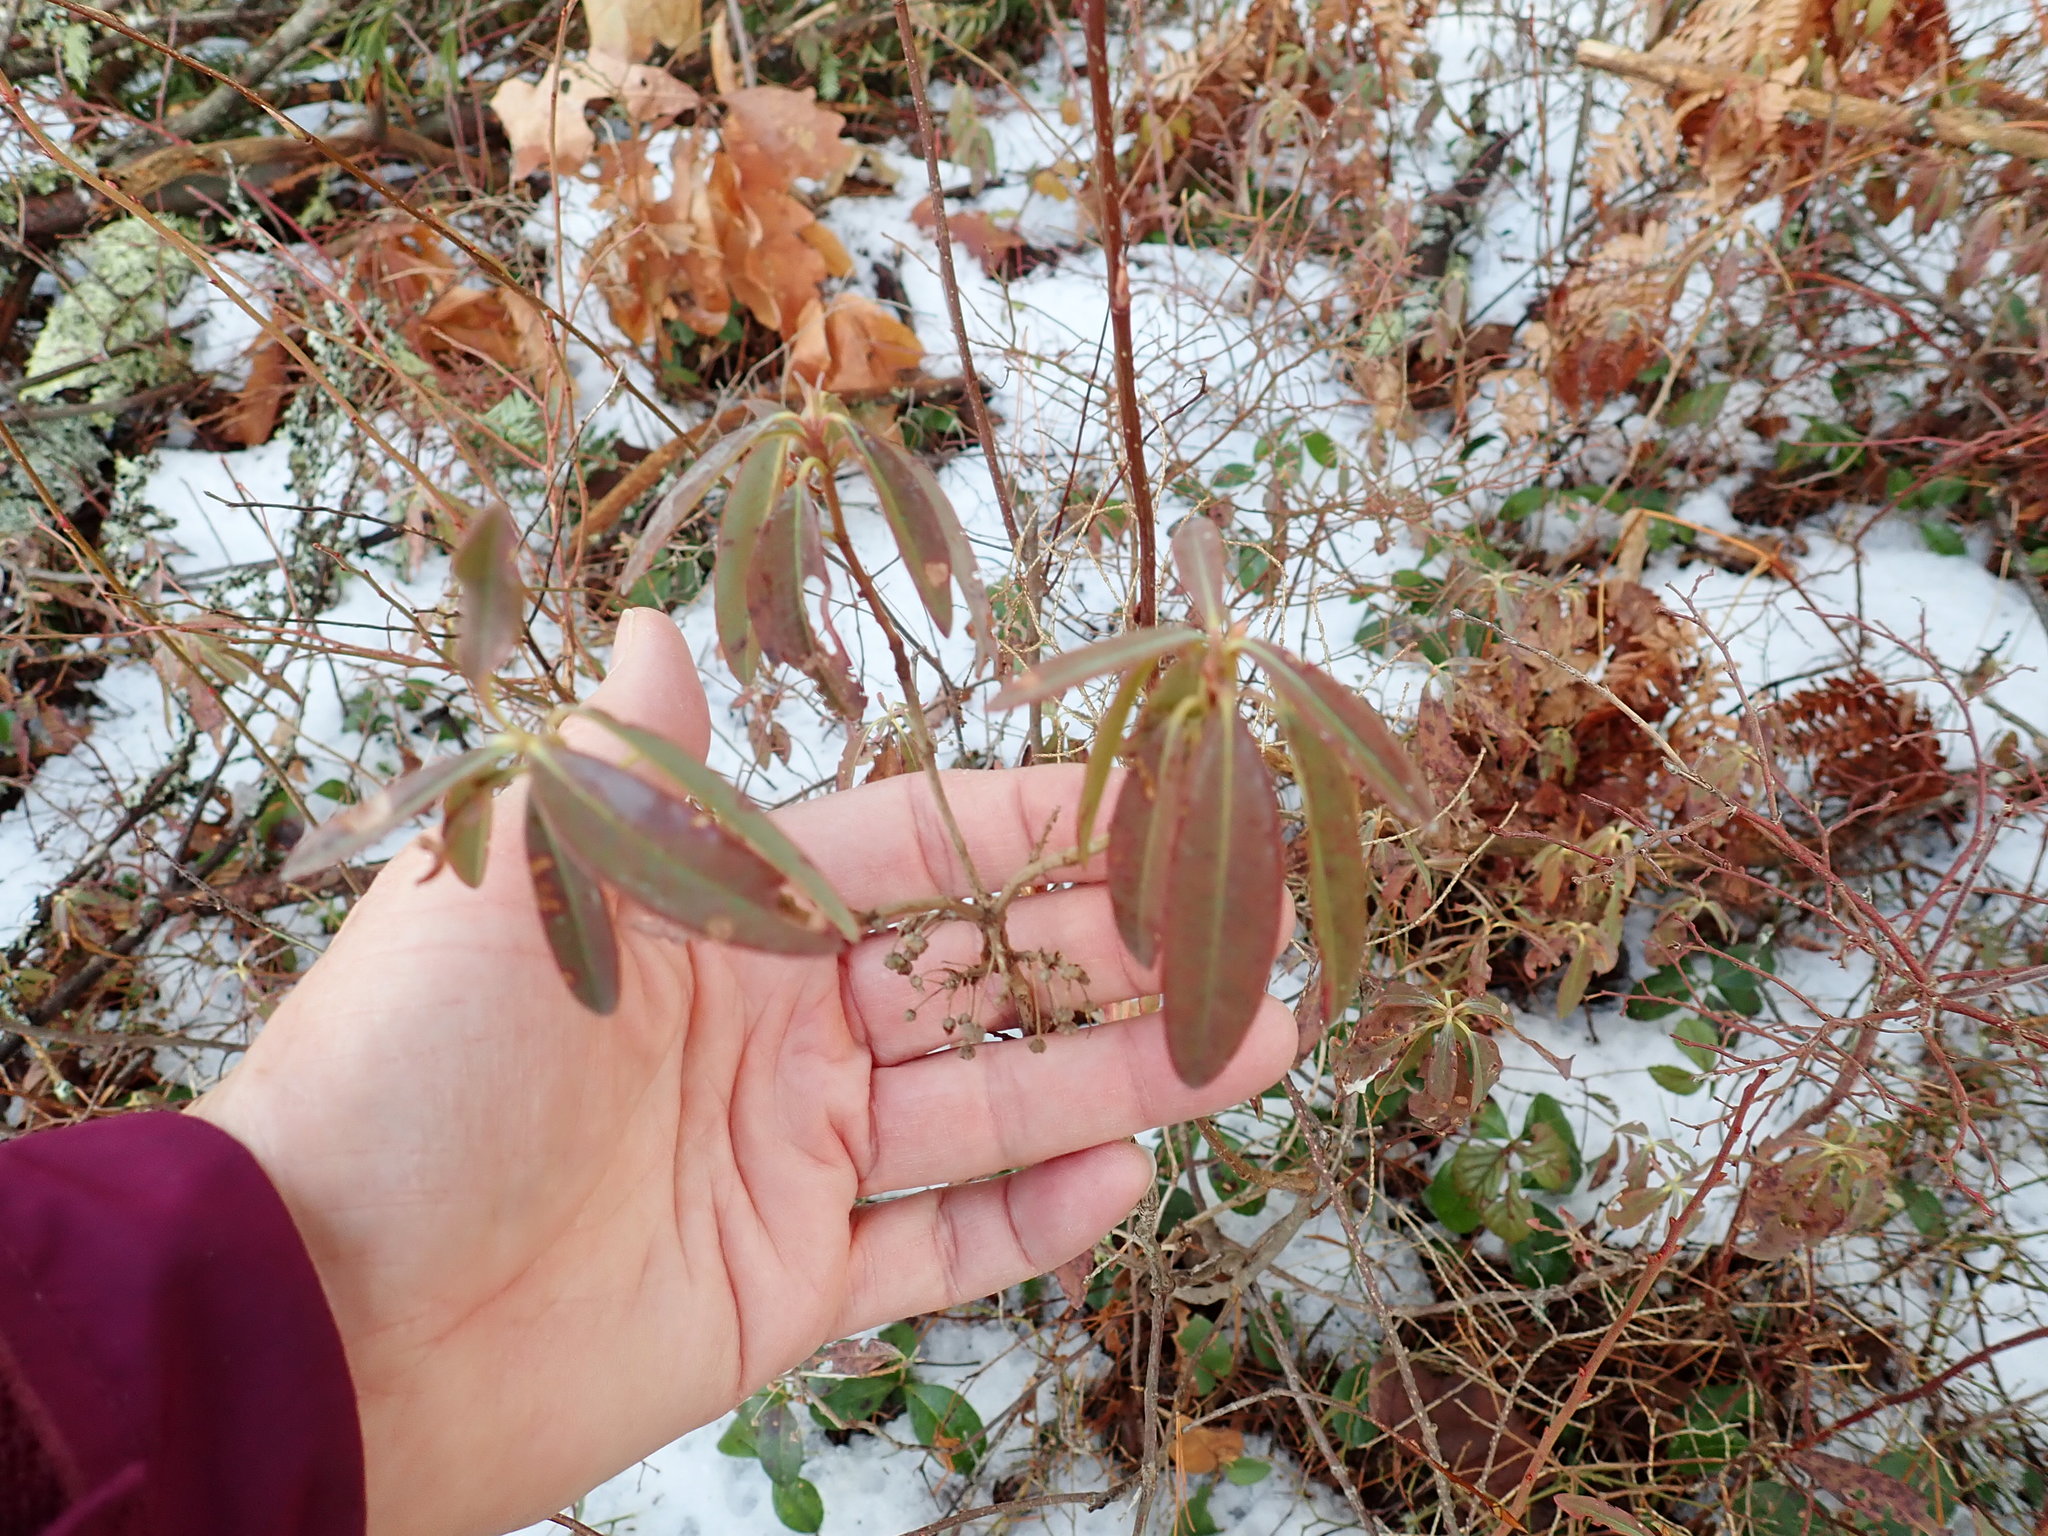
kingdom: Plantae
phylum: Tracheophyta
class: Magnoliopsida
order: Ericales
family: Ericaceae
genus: Kalmia
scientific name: Kalmia angustifolia
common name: Sheep-laurel
